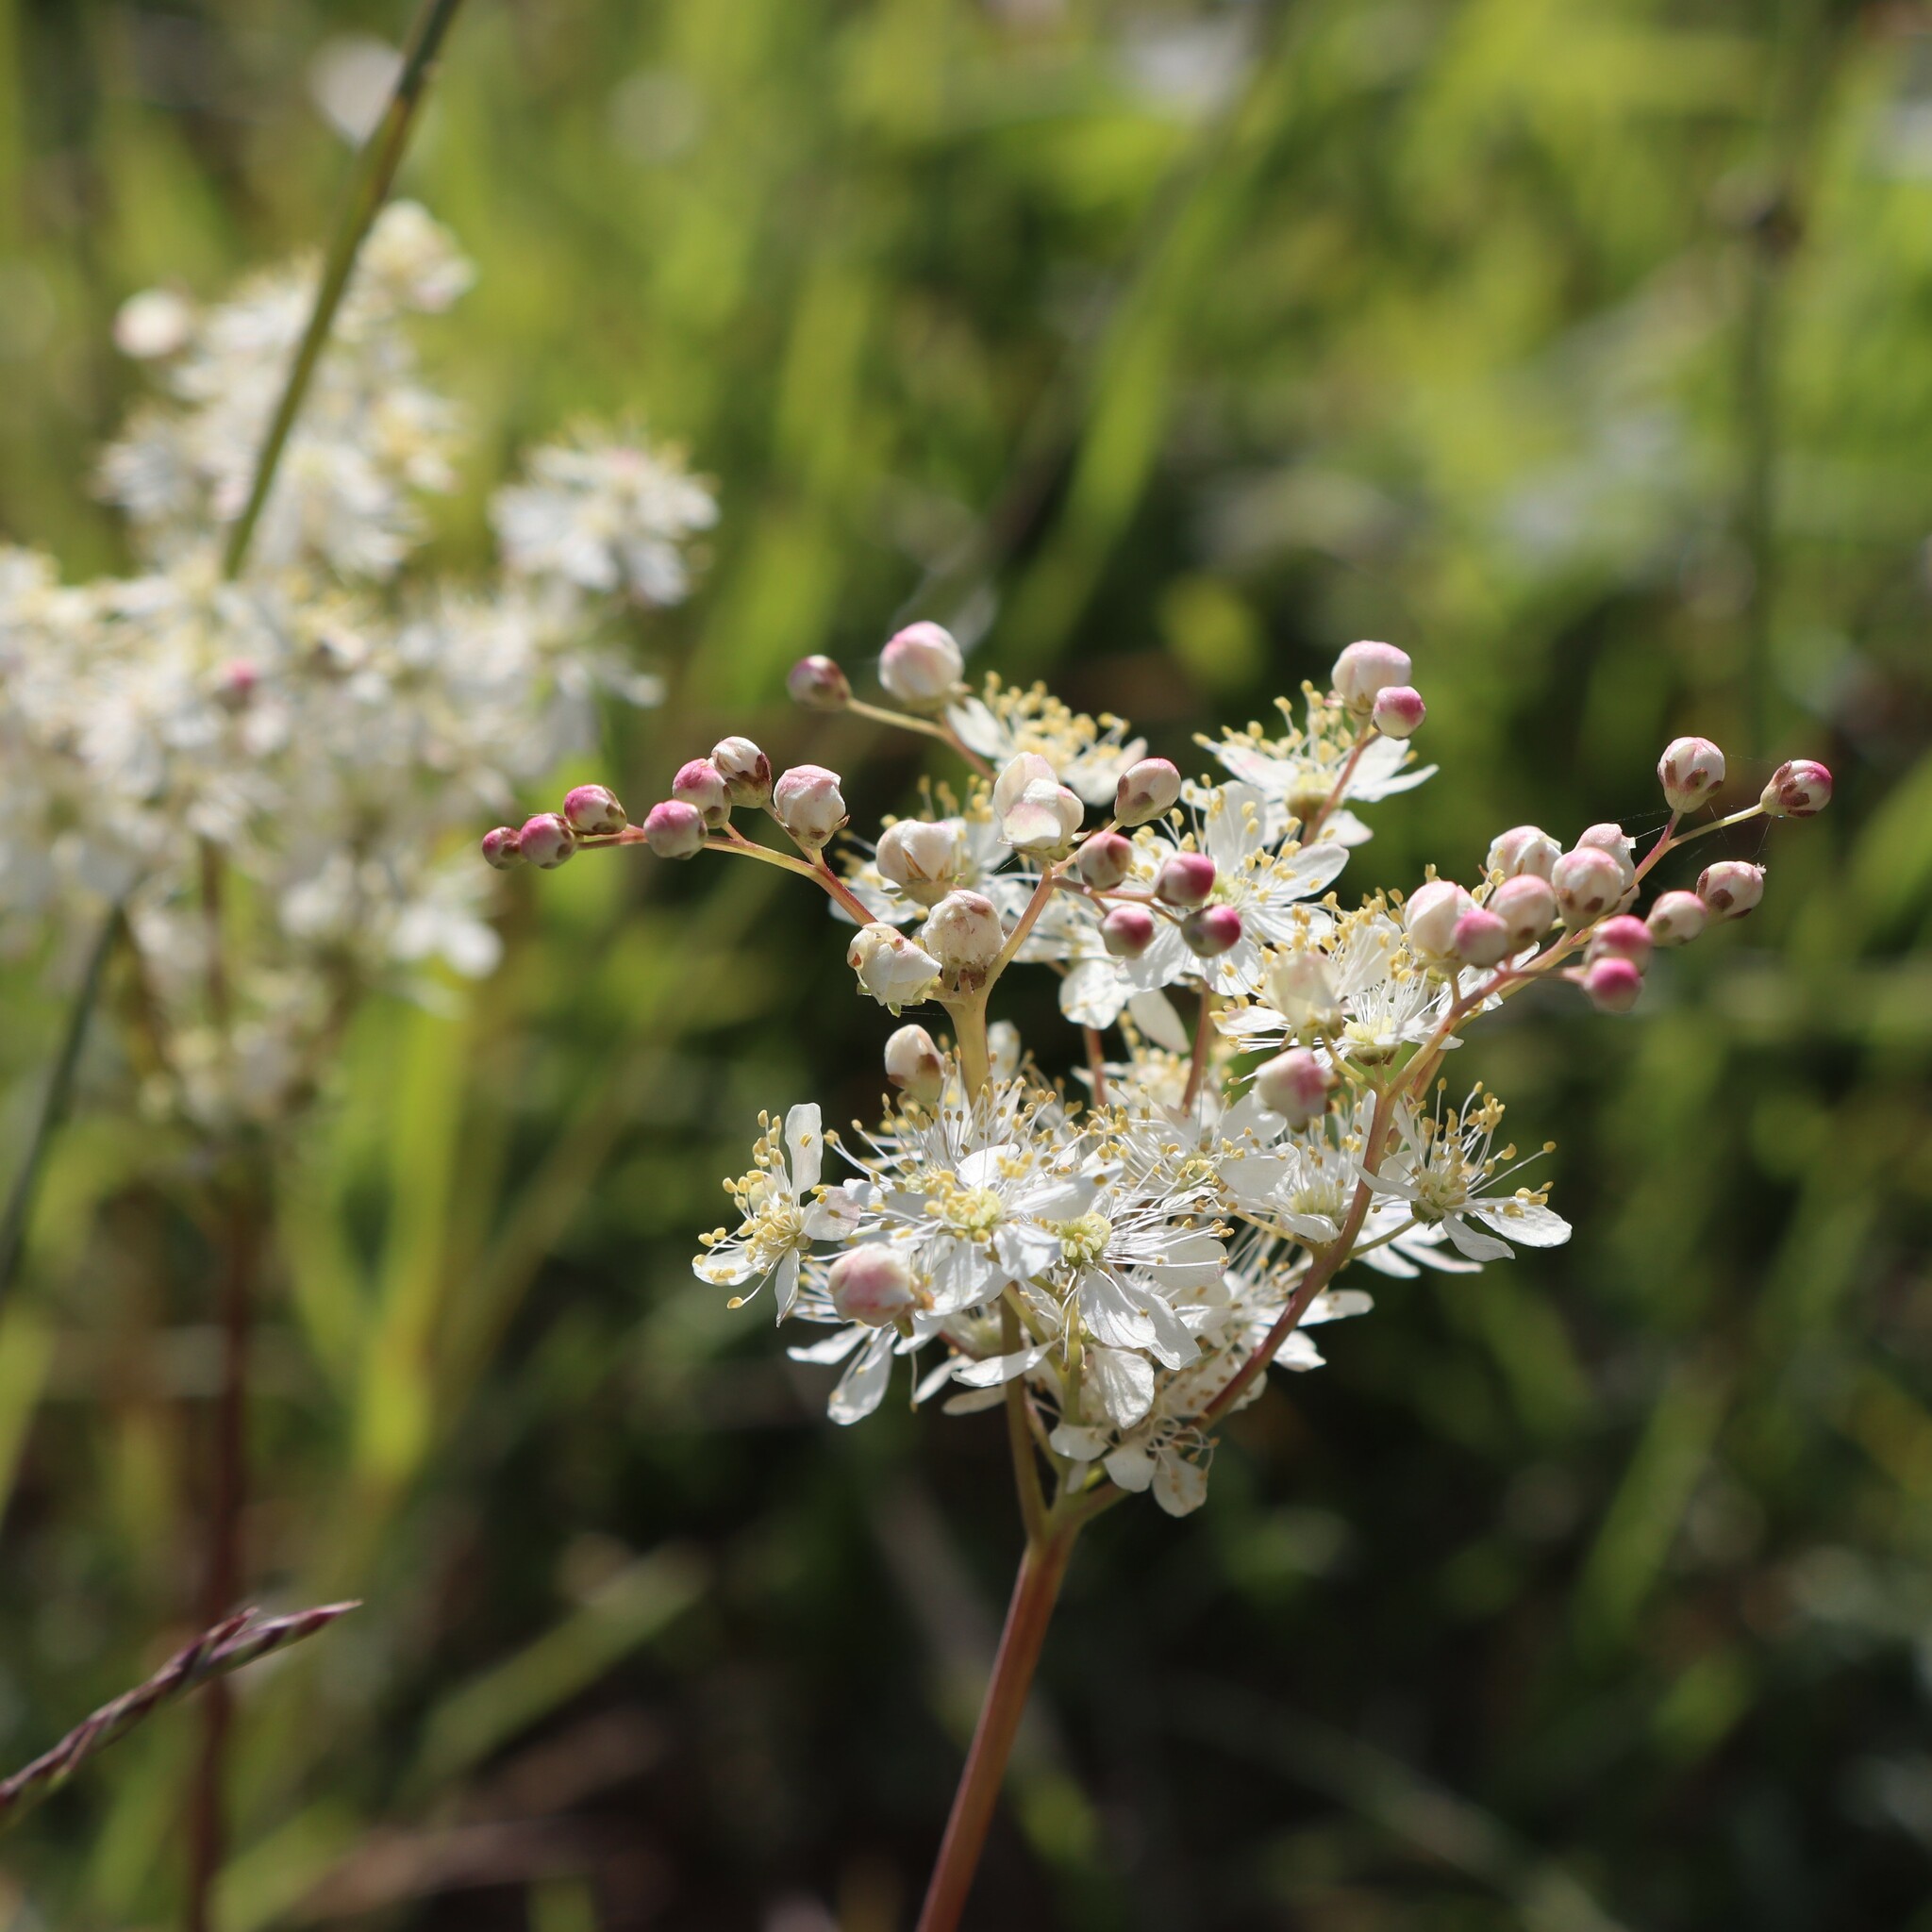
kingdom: Plantae
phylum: Tracheophyta
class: Magnoliopsida
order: Rosales
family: Rosaceae
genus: Filipendula
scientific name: Filipendula vulgaris
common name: Dropwort
